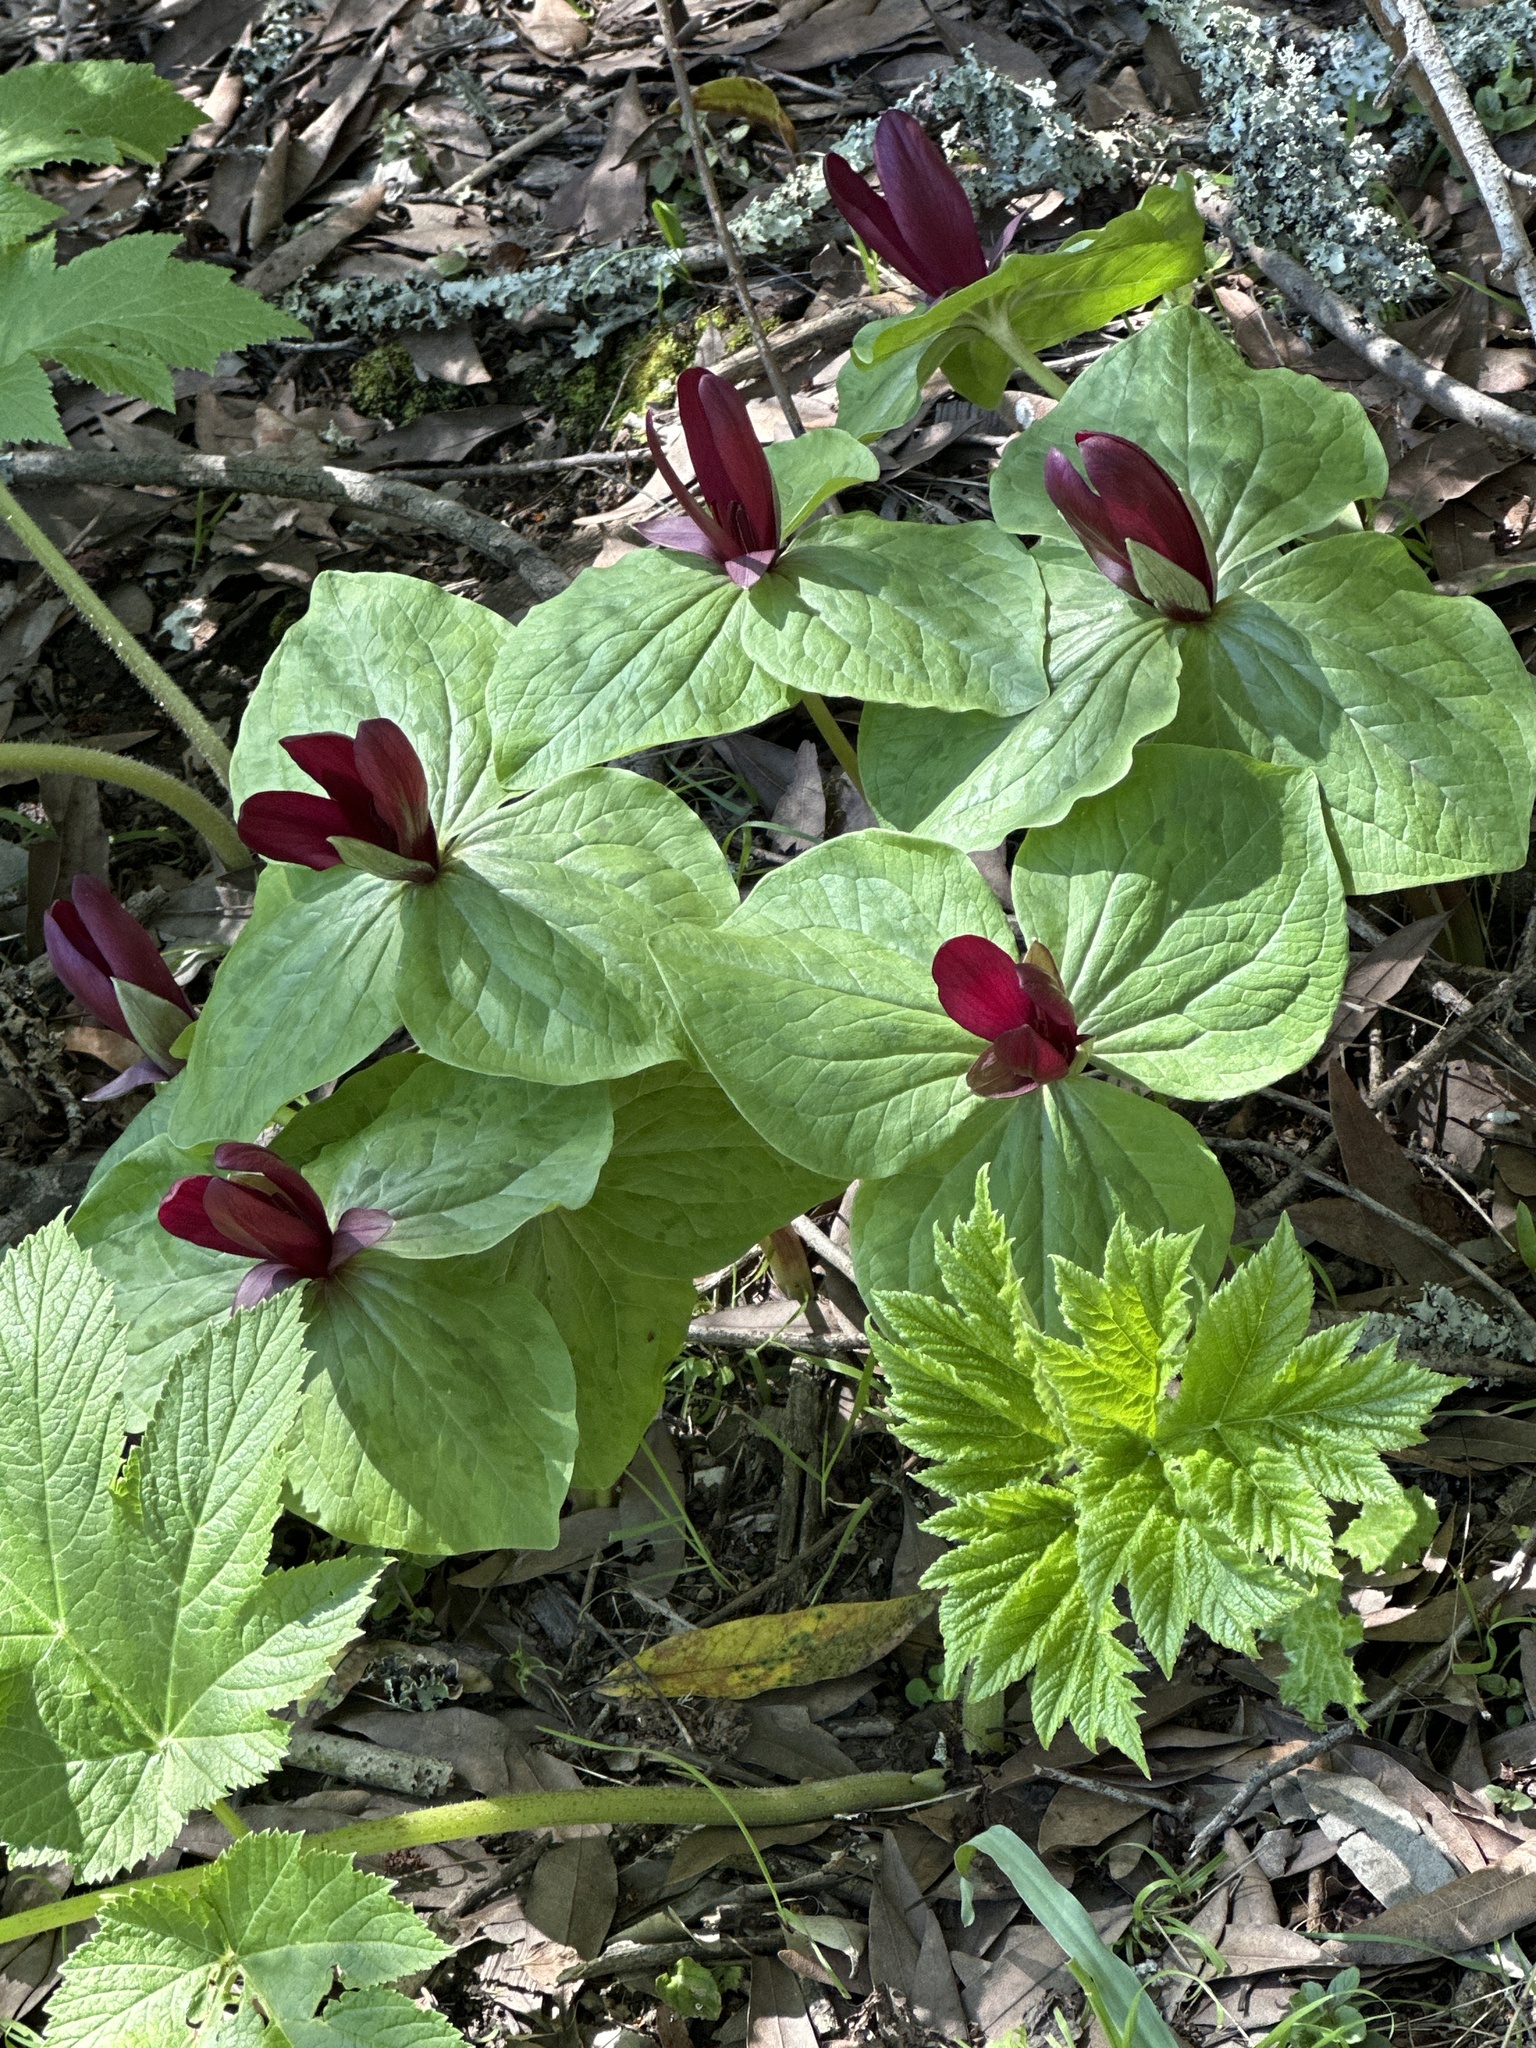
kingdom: Plantae
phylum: Tracheophyta
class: Liliopsida
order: Liliales
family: Melanthiaceae
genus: Trillium
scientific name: Trillium chloropetalum
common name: Giant trillium
